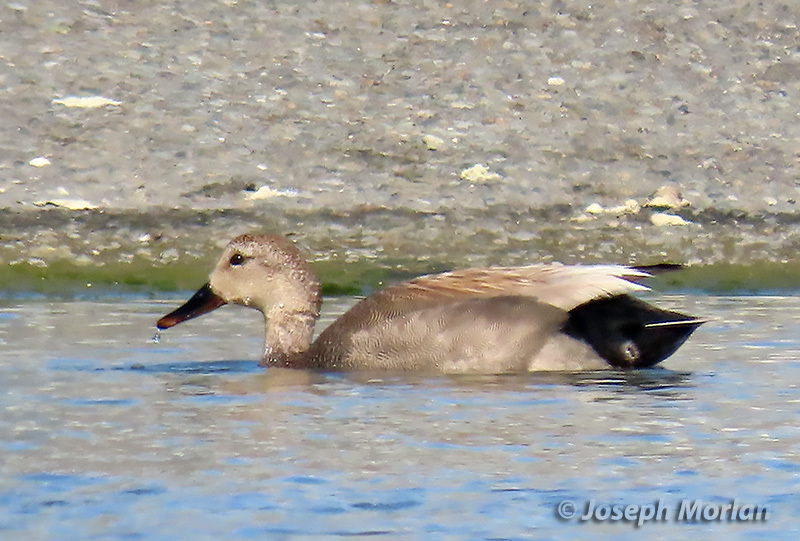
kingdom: Animalia
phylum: Chordata
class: Aves
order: Anseriformes
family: Anatidae
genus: Mareca
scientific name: Mareca strepera
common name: Gadwall
